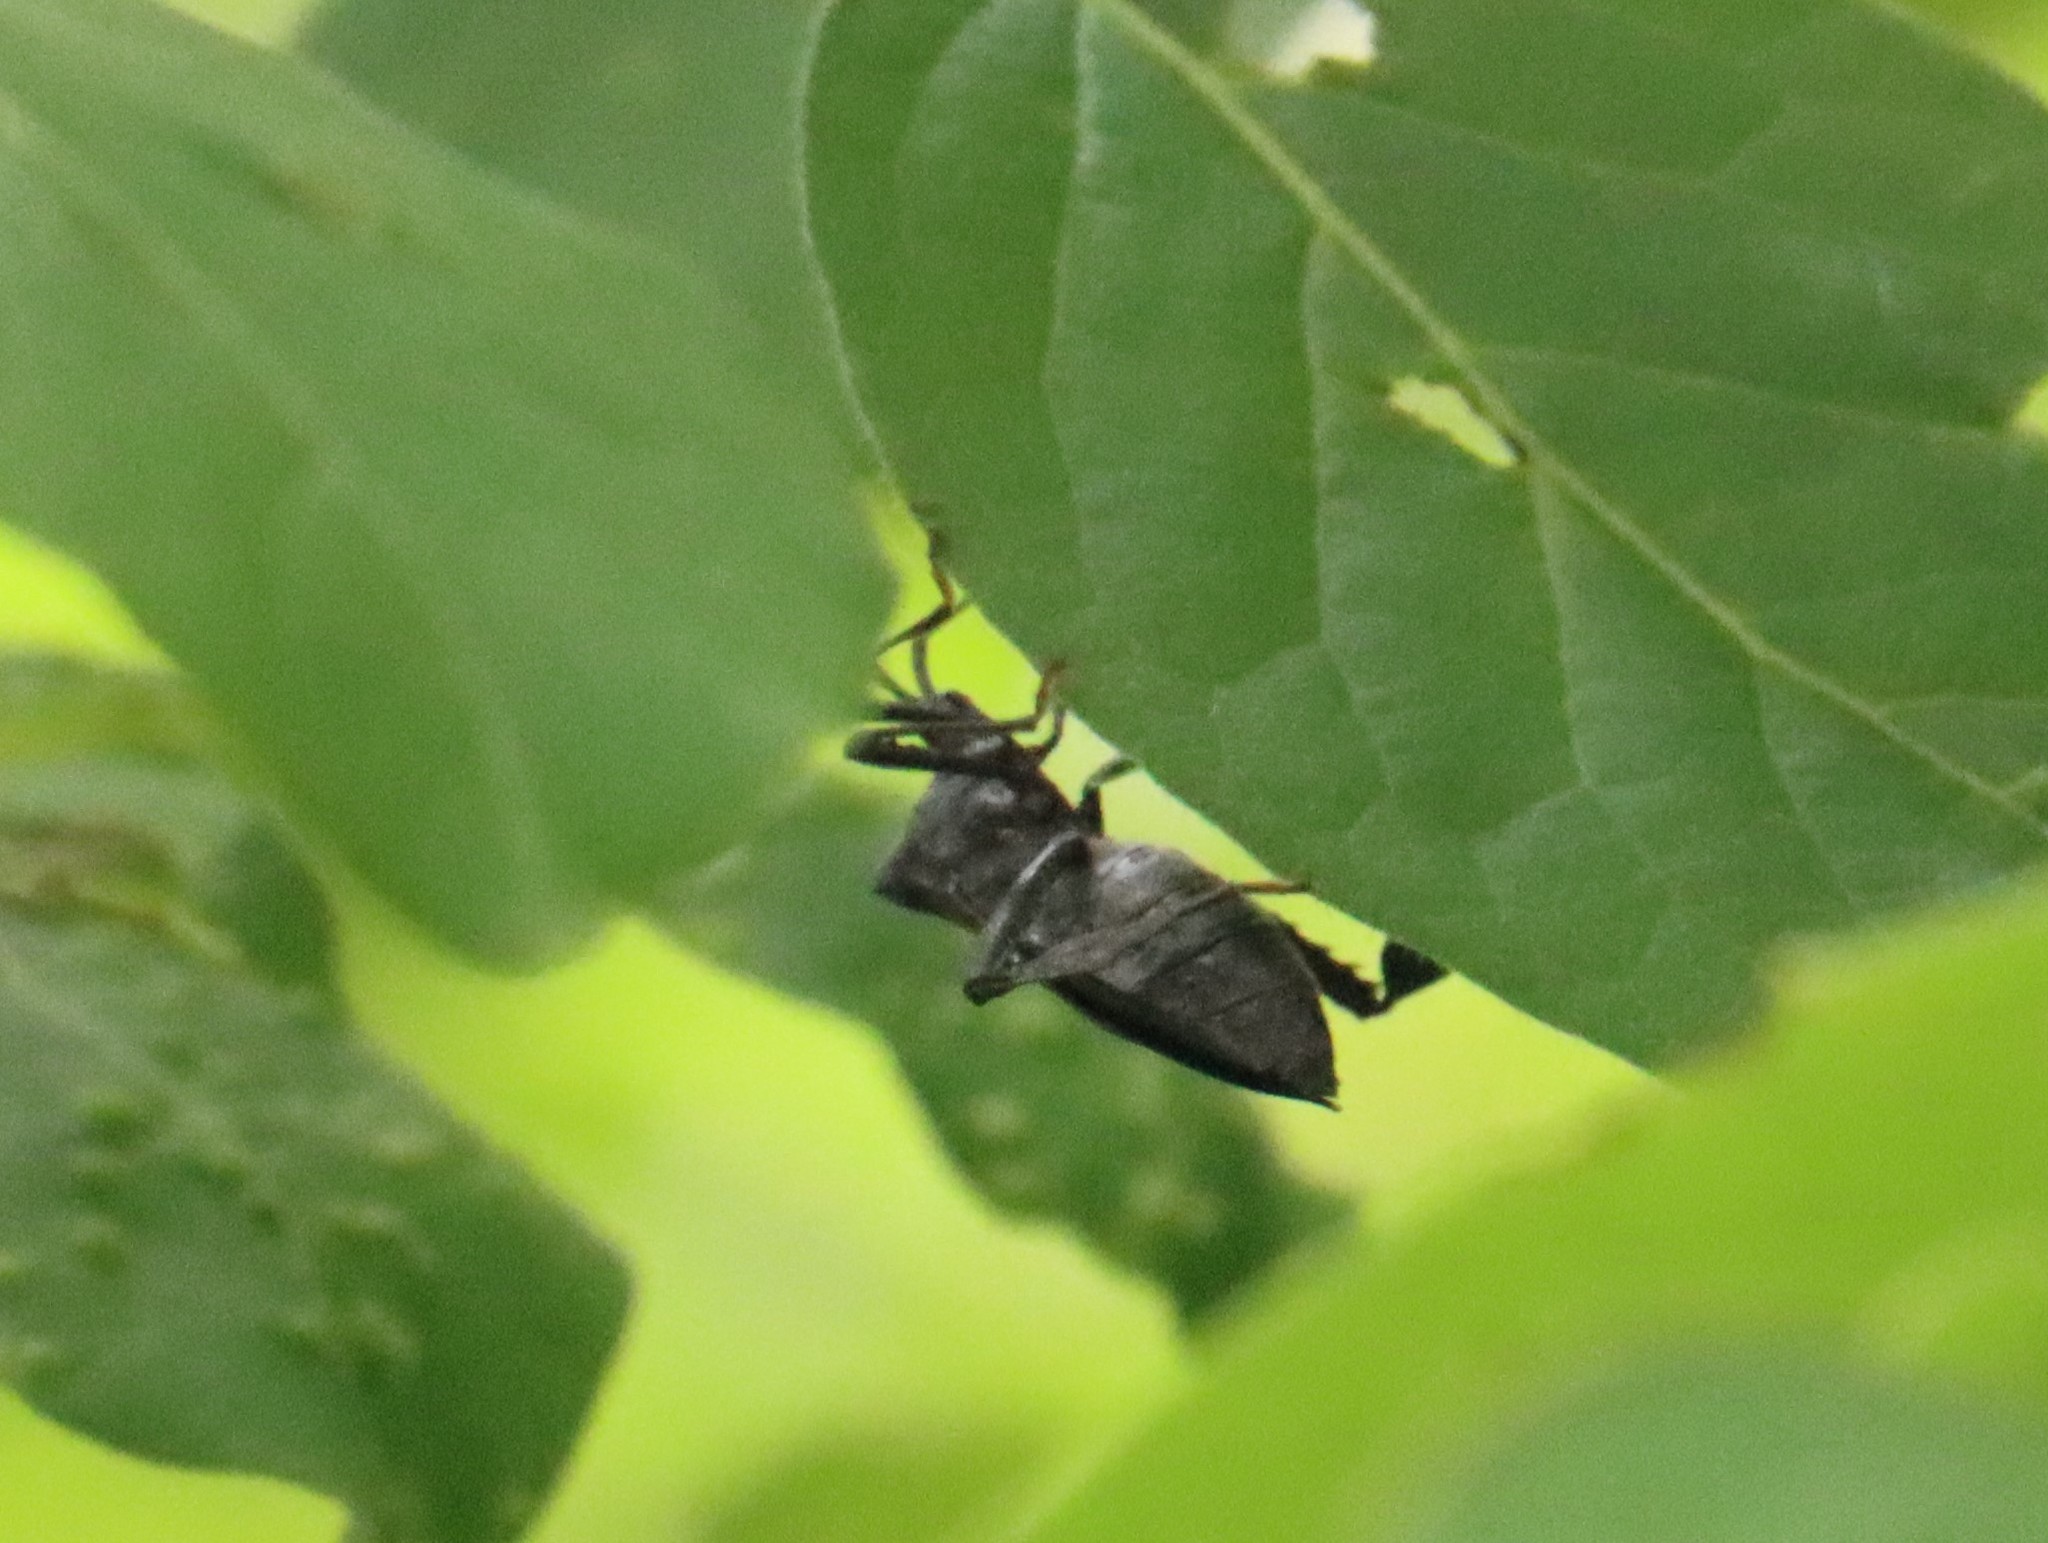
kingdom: Animalia
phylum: Arthropoda
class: Insecta
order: Hemiptera
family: Coreidae
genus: Acanthocephala
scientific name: Acanthocephala terminalis
